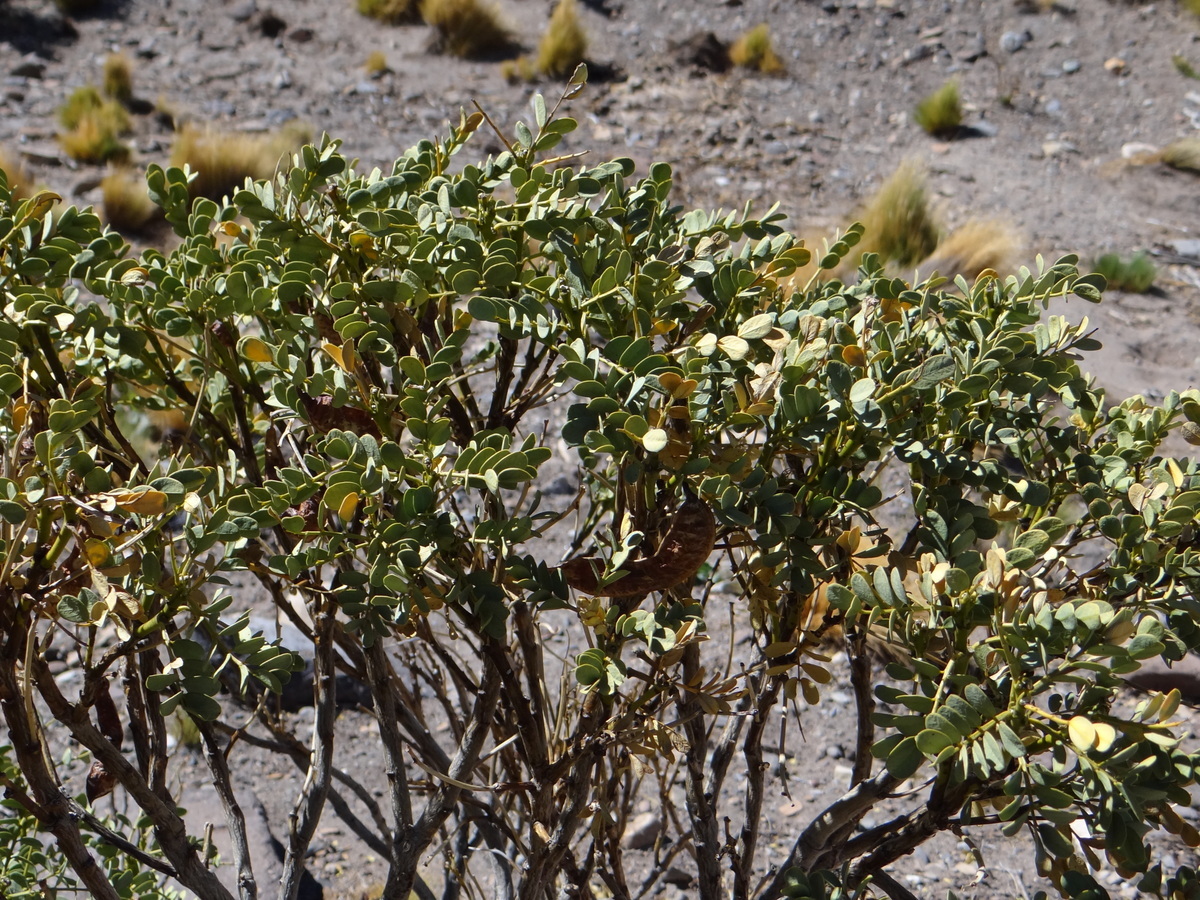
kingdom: Plantae
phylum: Tracheophyta
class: Magnoliopsida
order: Fabales
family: Fabaceae
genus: Senna
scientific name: Senna arnottiana
